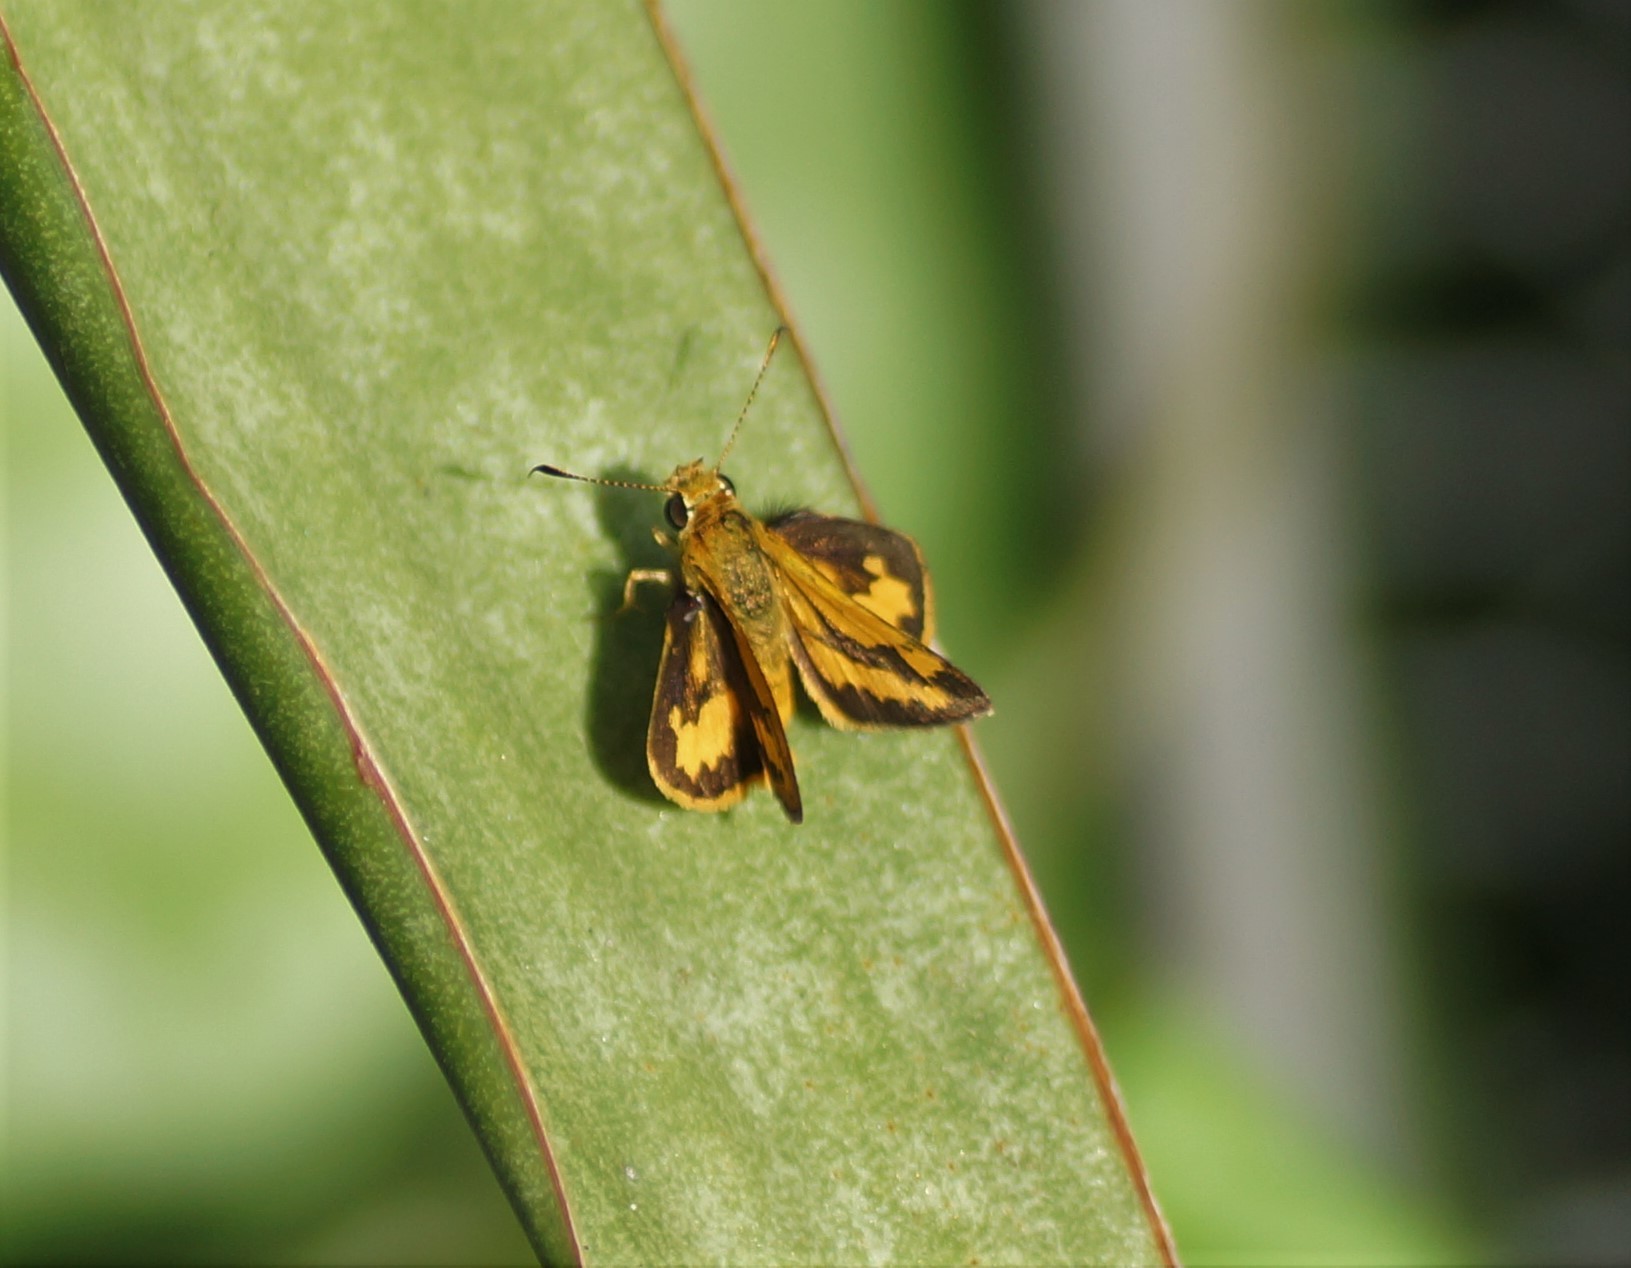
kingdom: Animalia
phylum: Arthropoda
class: Insecta
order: Lepidoptera
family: Hesperiidae
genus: Suniana
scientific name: Suniana sunias
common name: Wide-brand grass-dart
